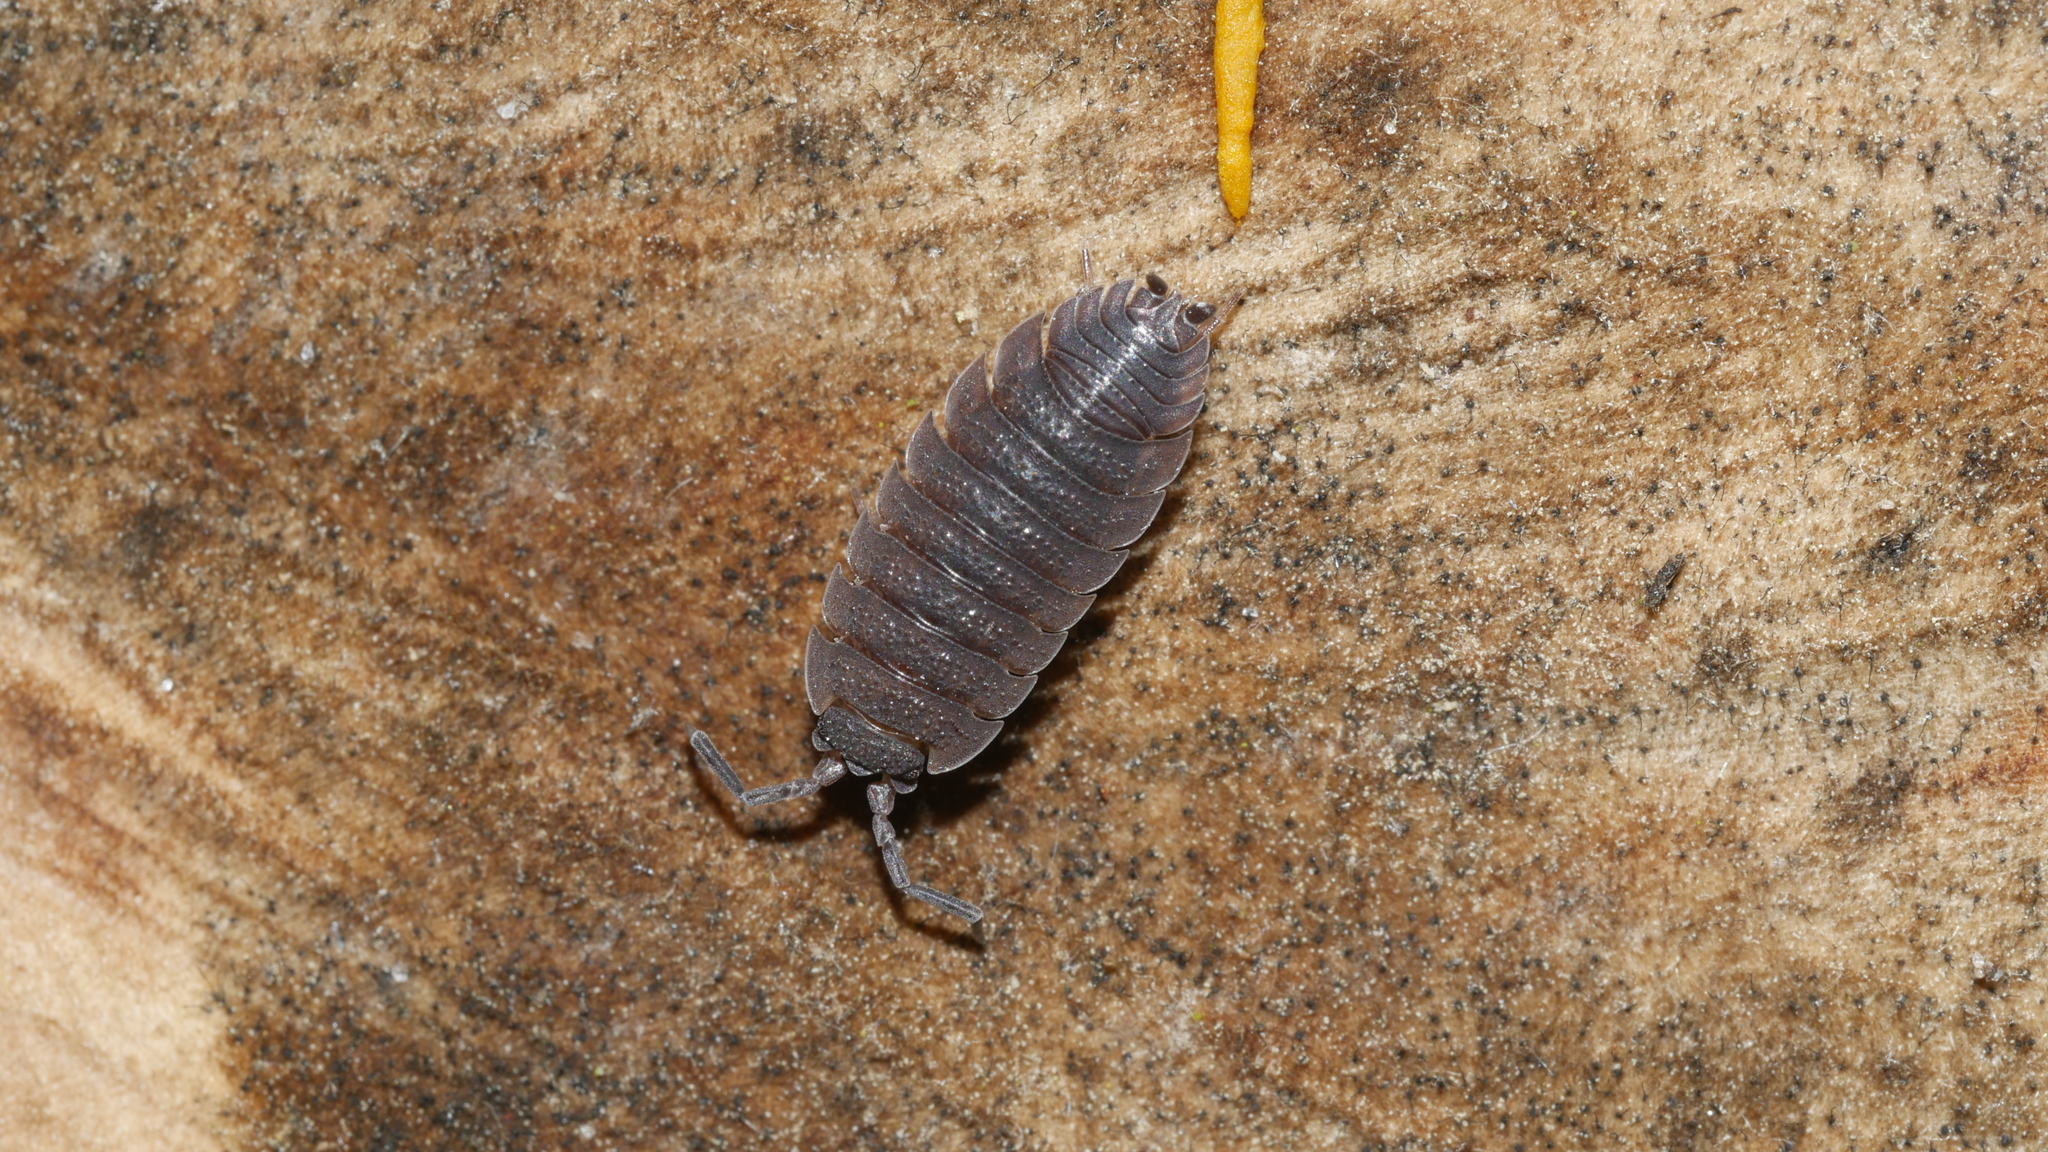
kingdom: Animalia
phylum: Arthropoda
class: Malacostraca
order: Isopoda
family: Porcellionidae
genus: Porcellio
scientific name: Porcellio scaber
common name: Common rough woodlouse
